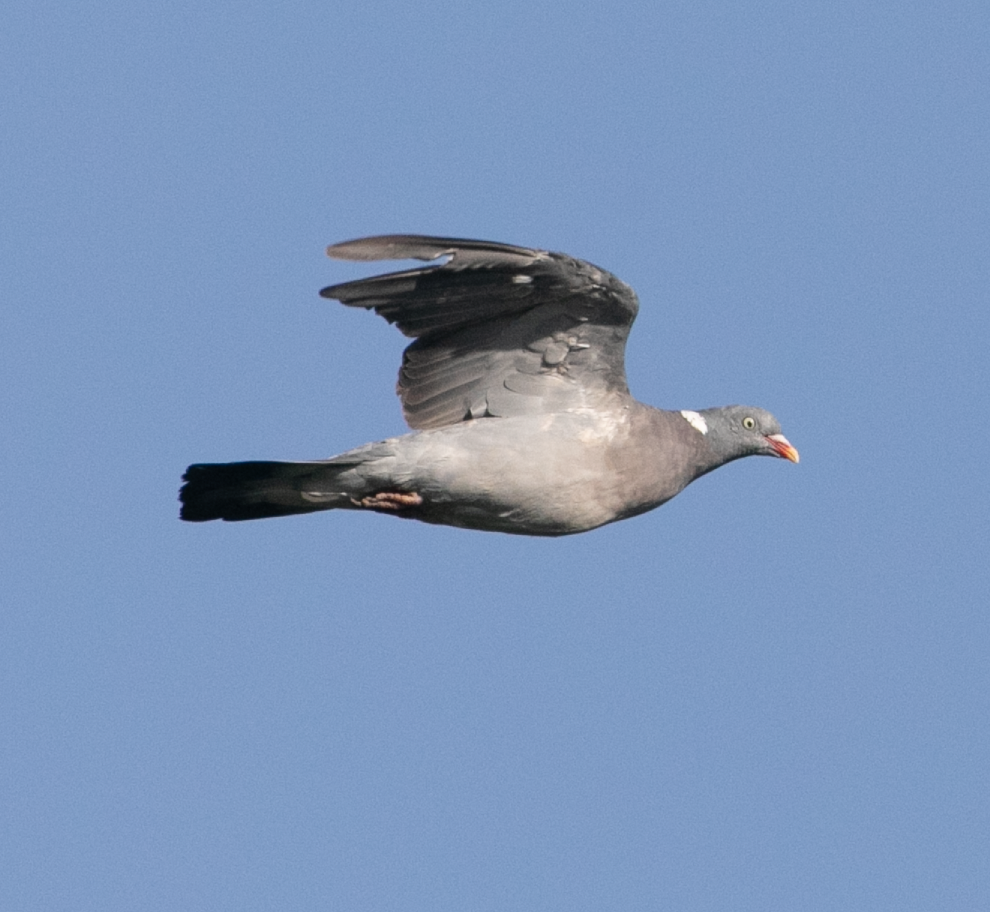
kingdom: Animalia
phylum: Chordata
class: Aves
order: Columbiformes
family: Columbidae
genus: Columba
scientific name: Columba palumbus
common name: Common wood pigeon
